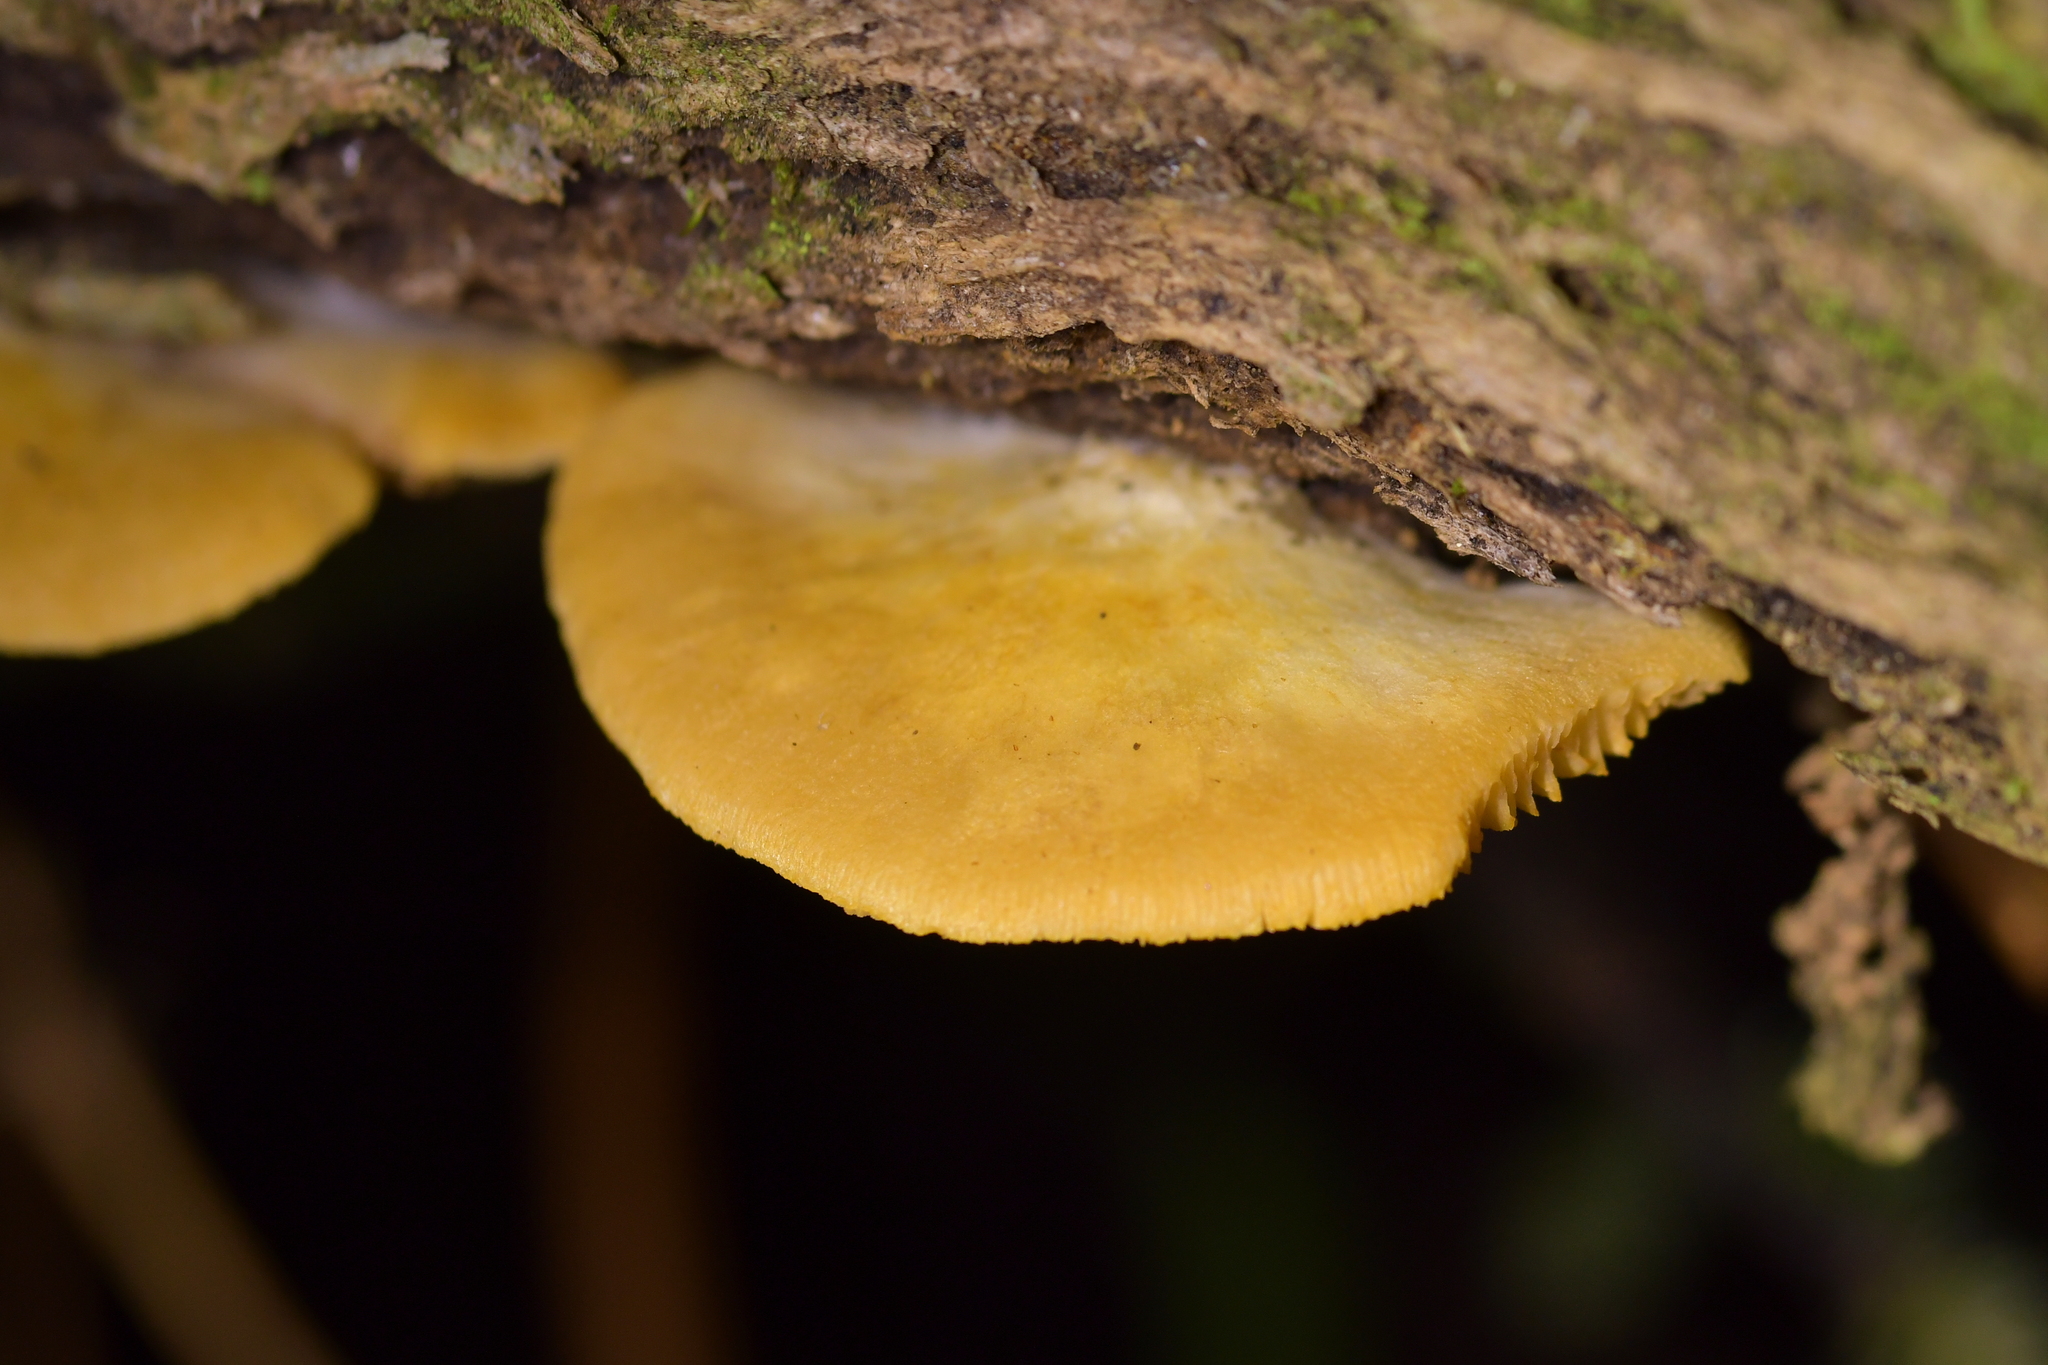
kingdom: Fungi
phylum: Basidiomycota
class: Agaricomycetes
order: Agaricales
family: Crepidotaceae
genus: Crepidotus
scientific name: Crepidotus praecipuus
